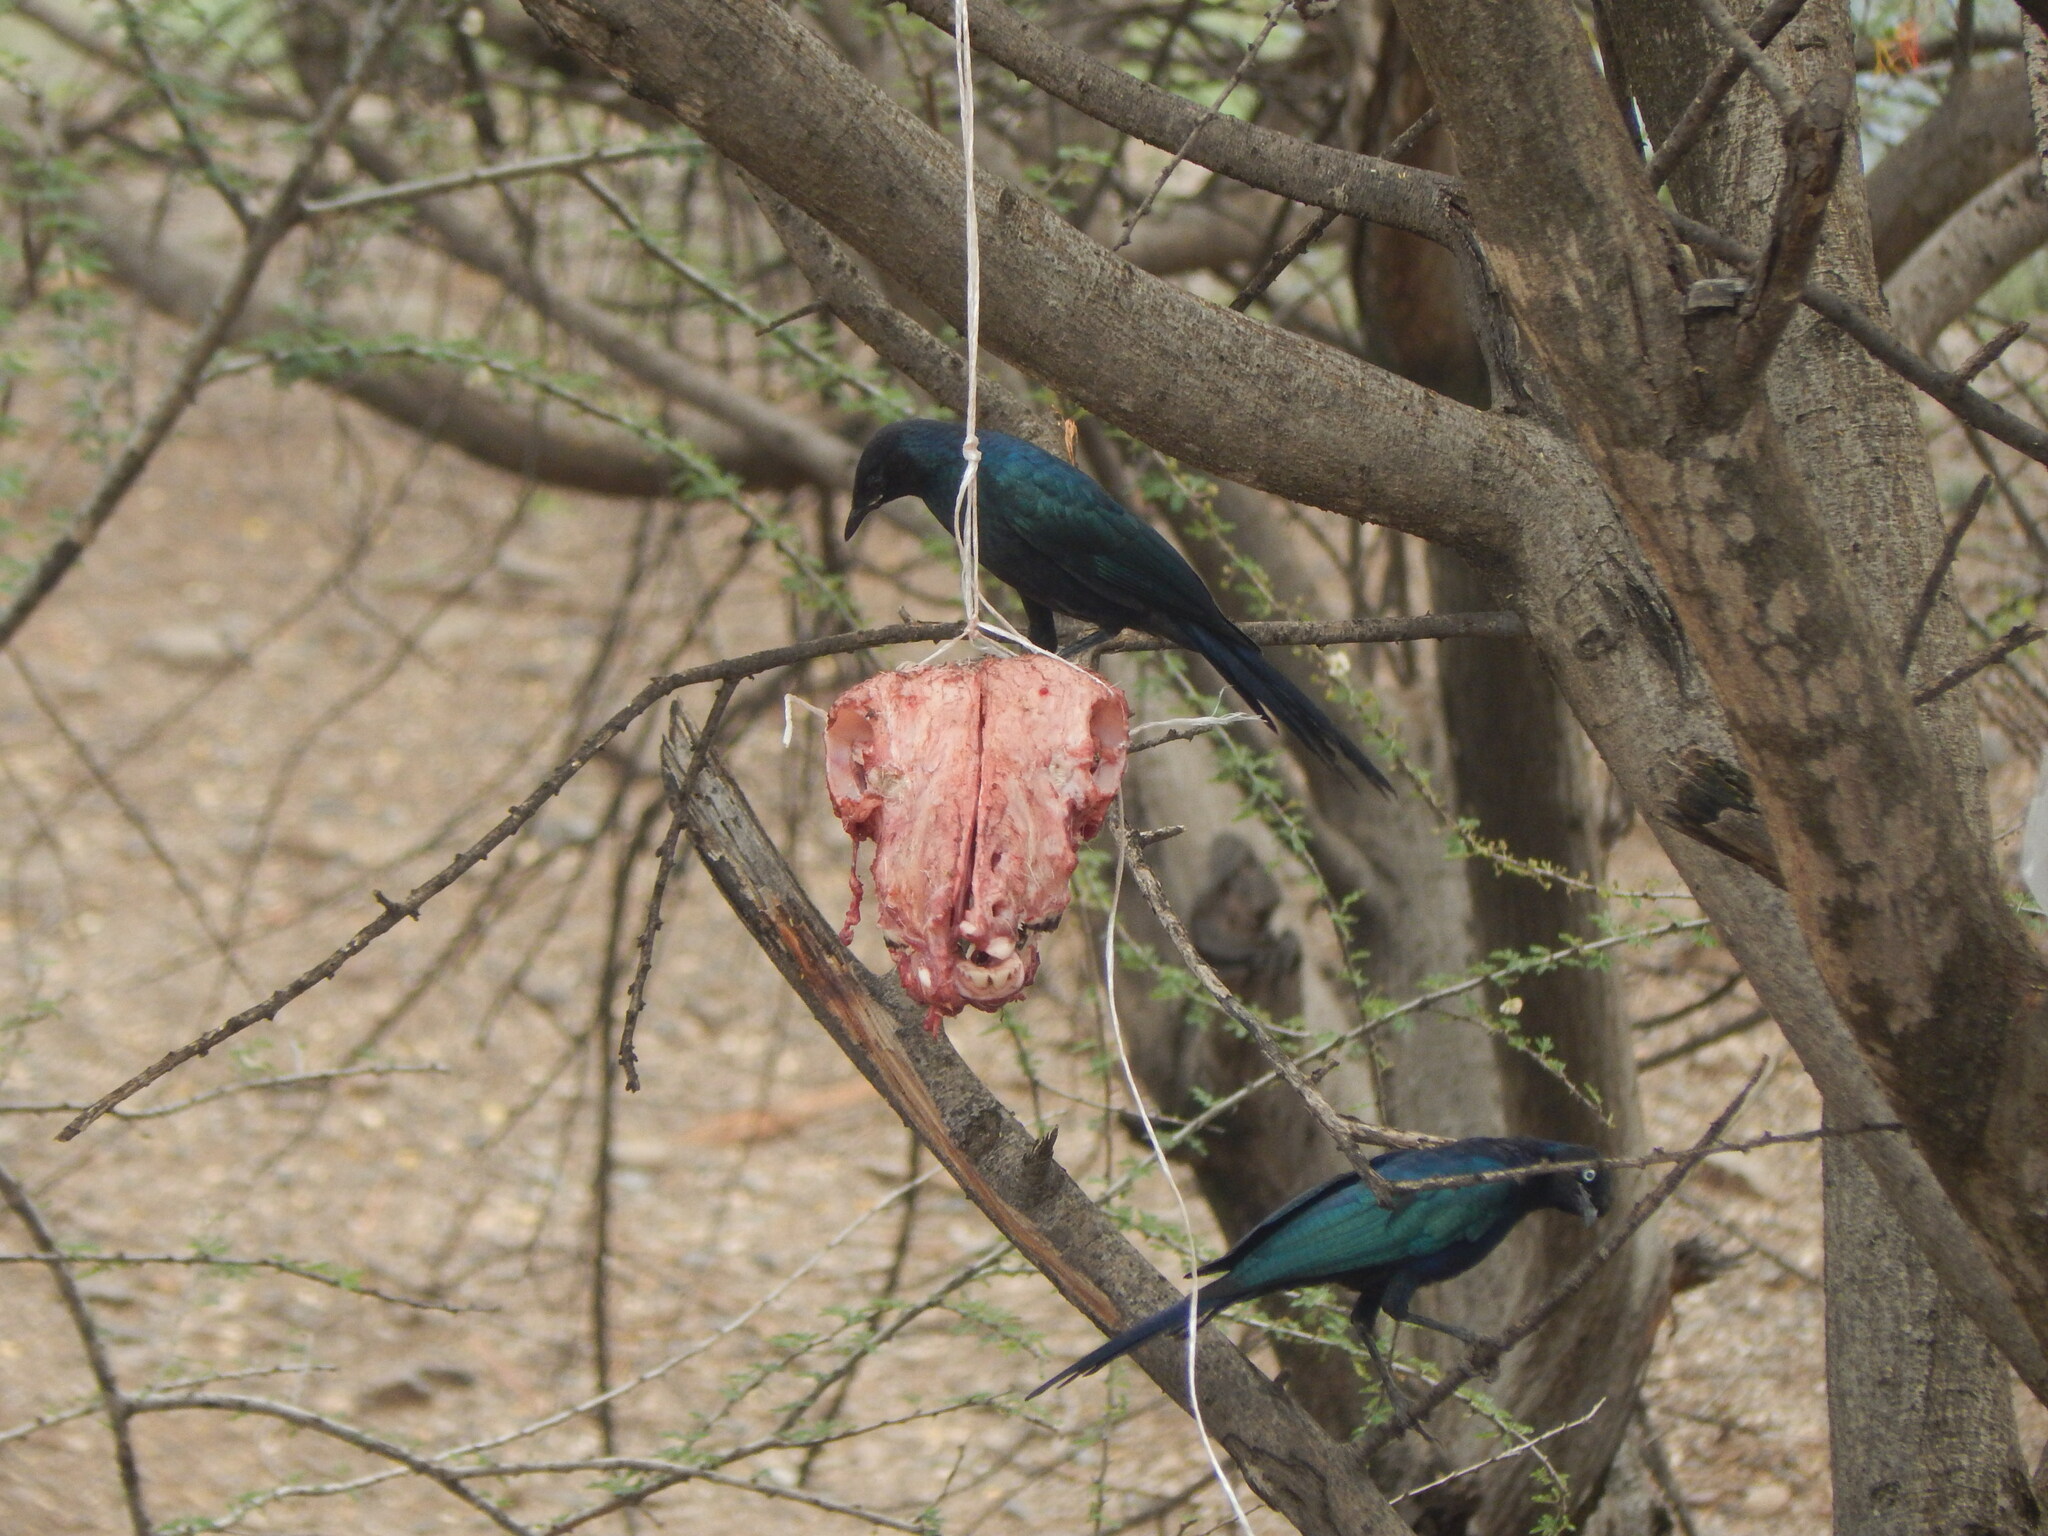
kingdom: Animalia
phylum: Chordata
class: Aves
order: Passeriformes
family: Sturnidae
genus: Lamprotornis
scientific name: Lamprotornis purpuroptera
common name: Rüppell's starling
